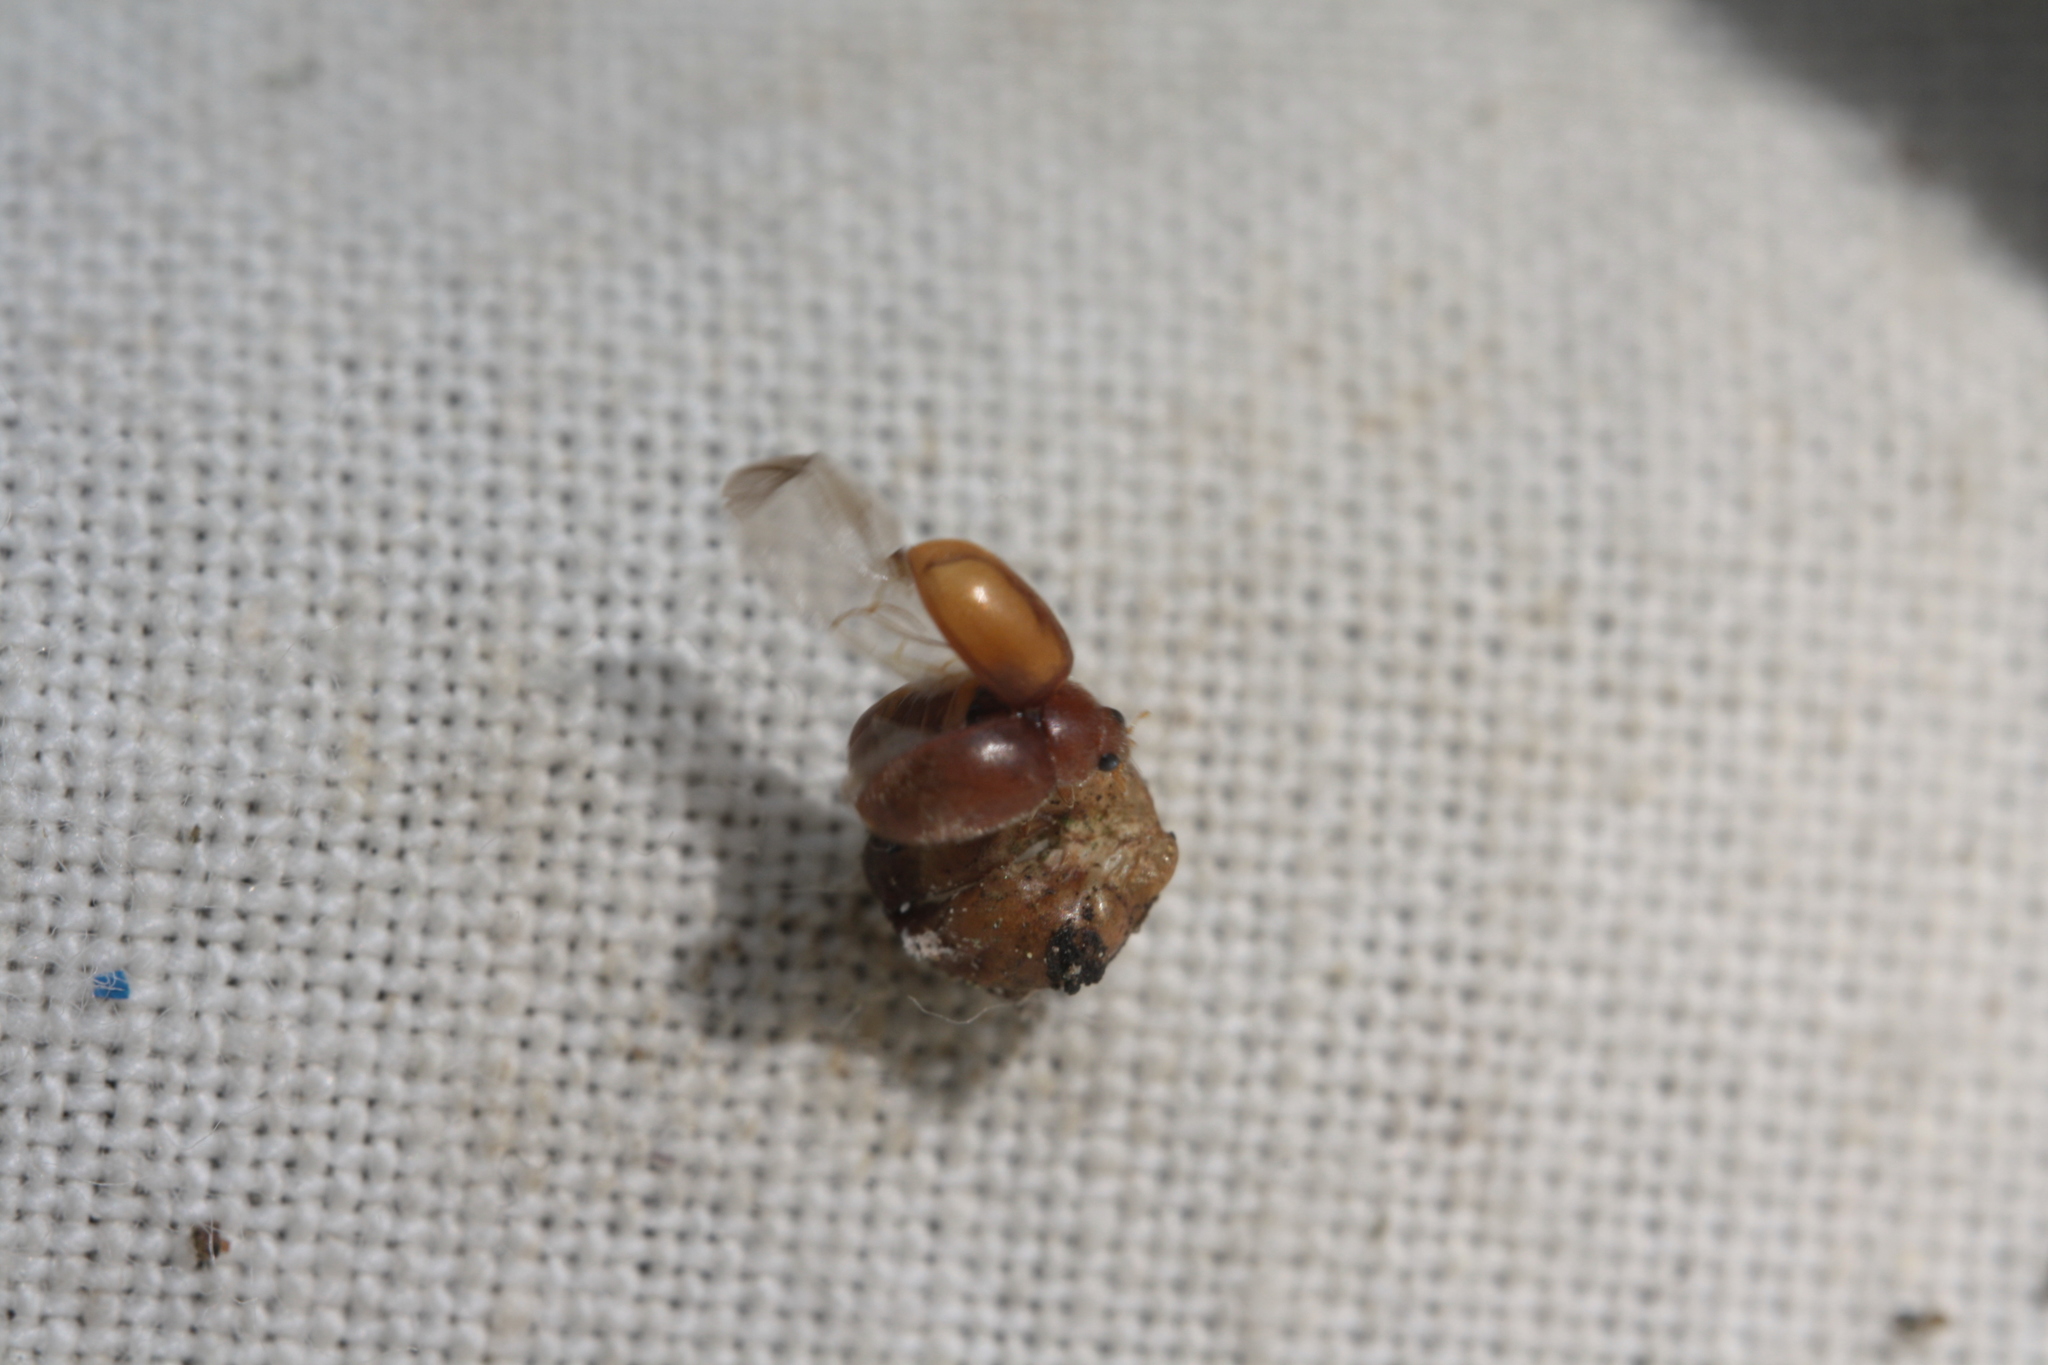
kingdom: Animalia
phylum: Arthropoda
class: Insecta
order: Coleoptera
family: Coccinellidae
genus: Scymnus
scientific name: Scymnus abietis
